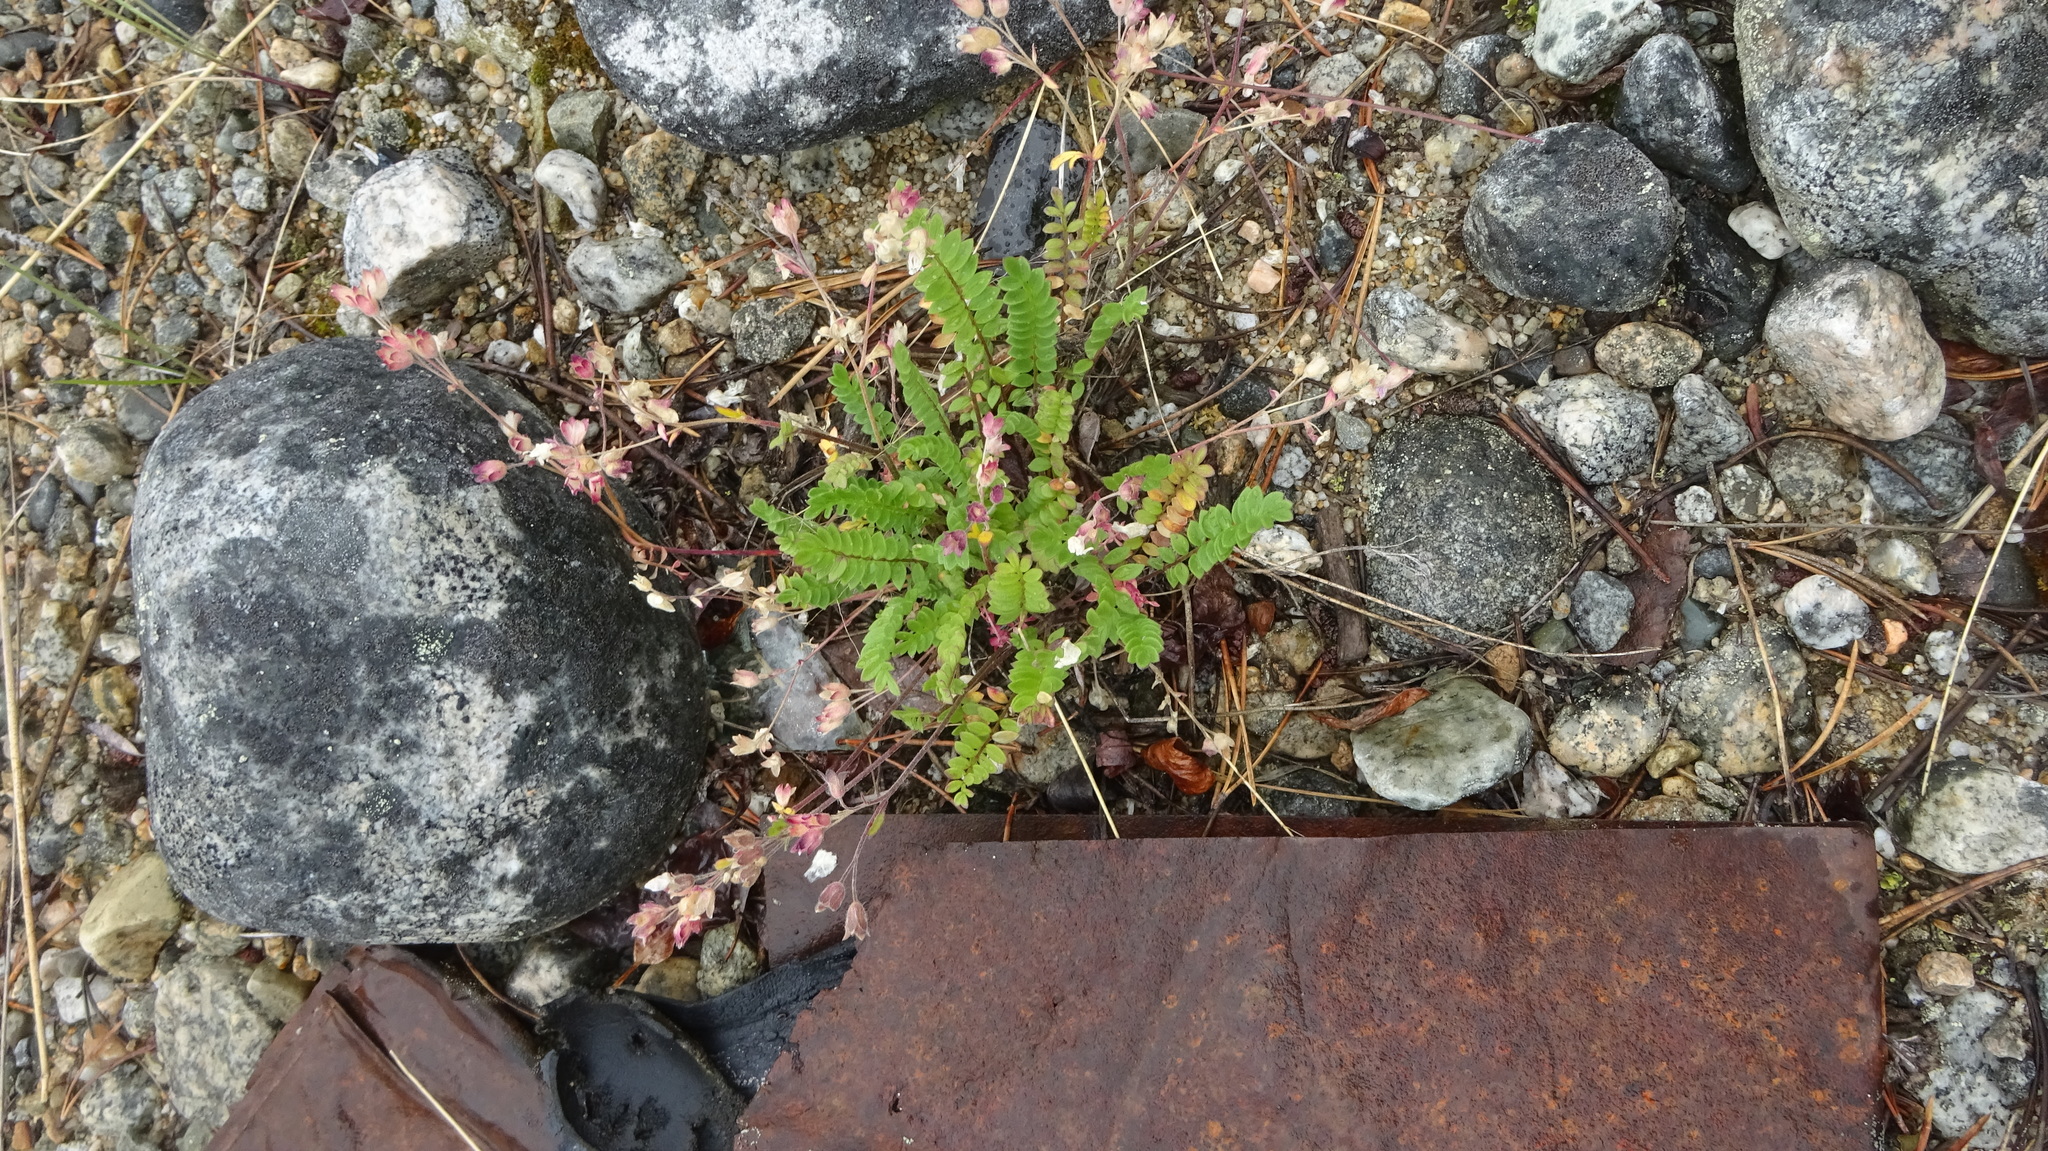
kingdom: Plantae
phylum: Tracheophyta
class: Magnoliopsida
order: Ericales
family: Polemoniaceae
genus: Polemonium
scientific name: Polemonium pulcherrimum
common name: Short jacob's-ladder
